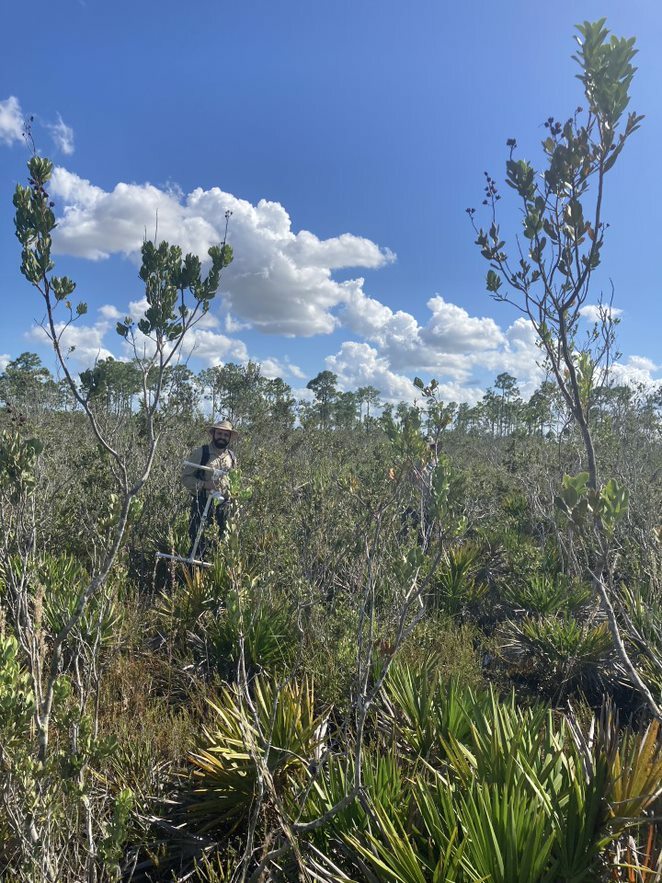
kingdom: Plantae
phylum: Tracheophyta
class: Magnoliopsida
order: Ericales
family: Ericaceae
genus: Bejaria
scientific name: Bejaria racemosa
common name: Tarflower
